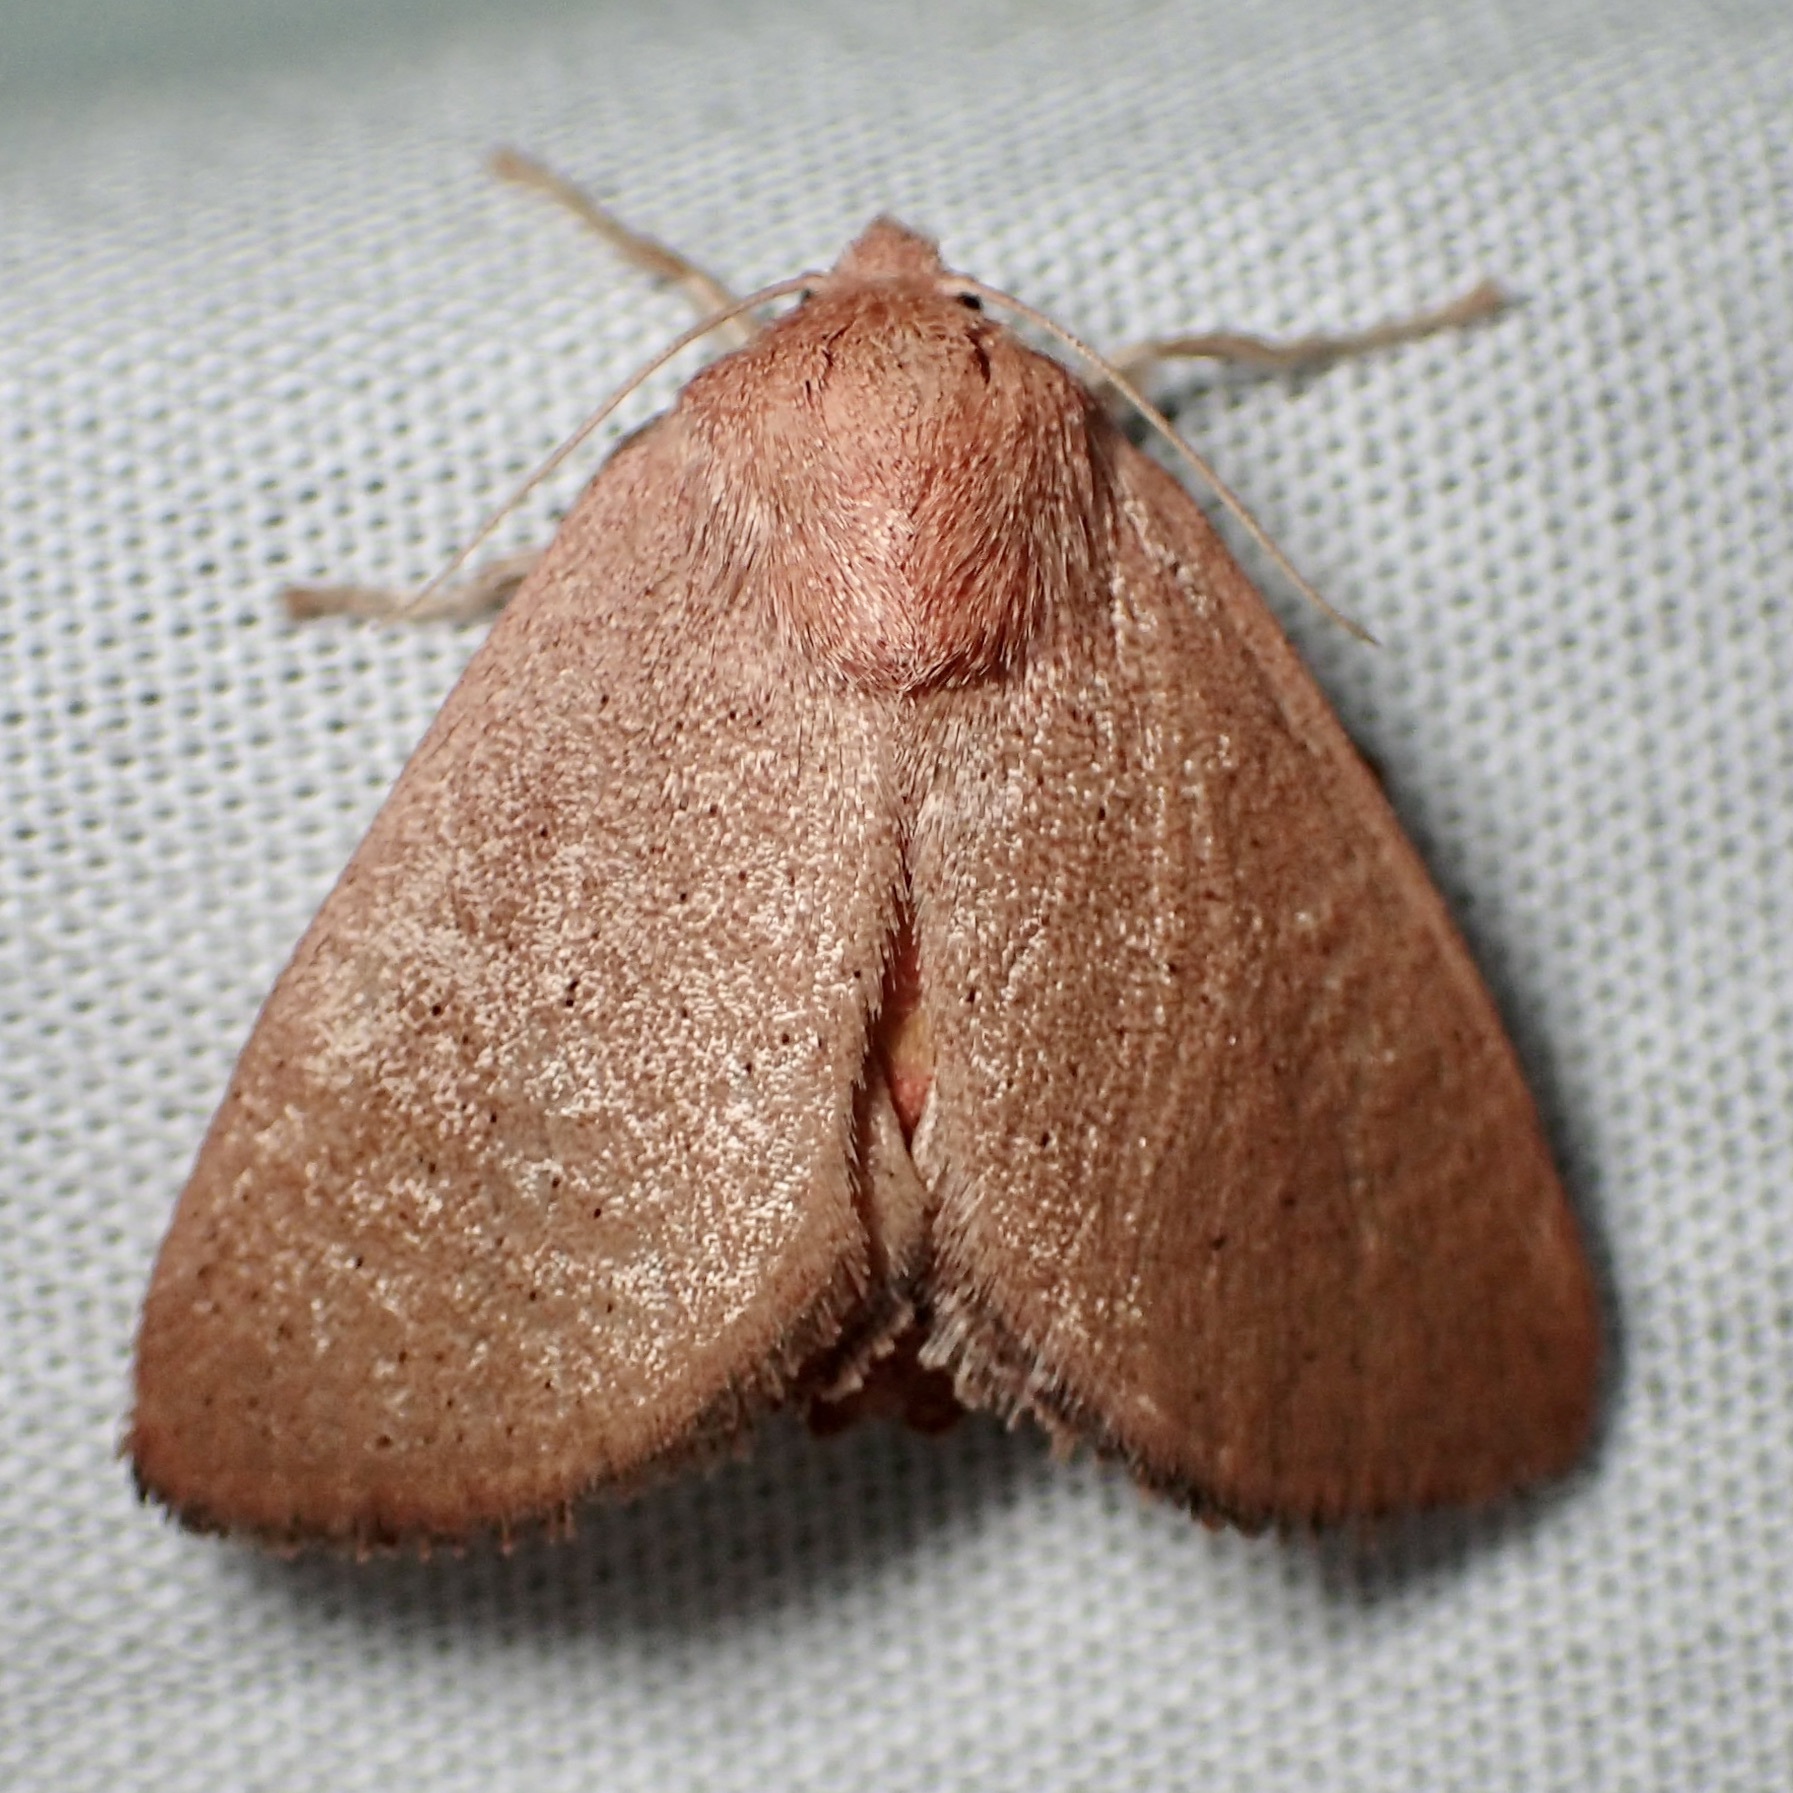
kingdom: Animalia
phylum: Arthropoda
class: Insecta
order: Lepidoptera
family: Limacodidae
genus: Isa
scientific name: Isa schaefferana
